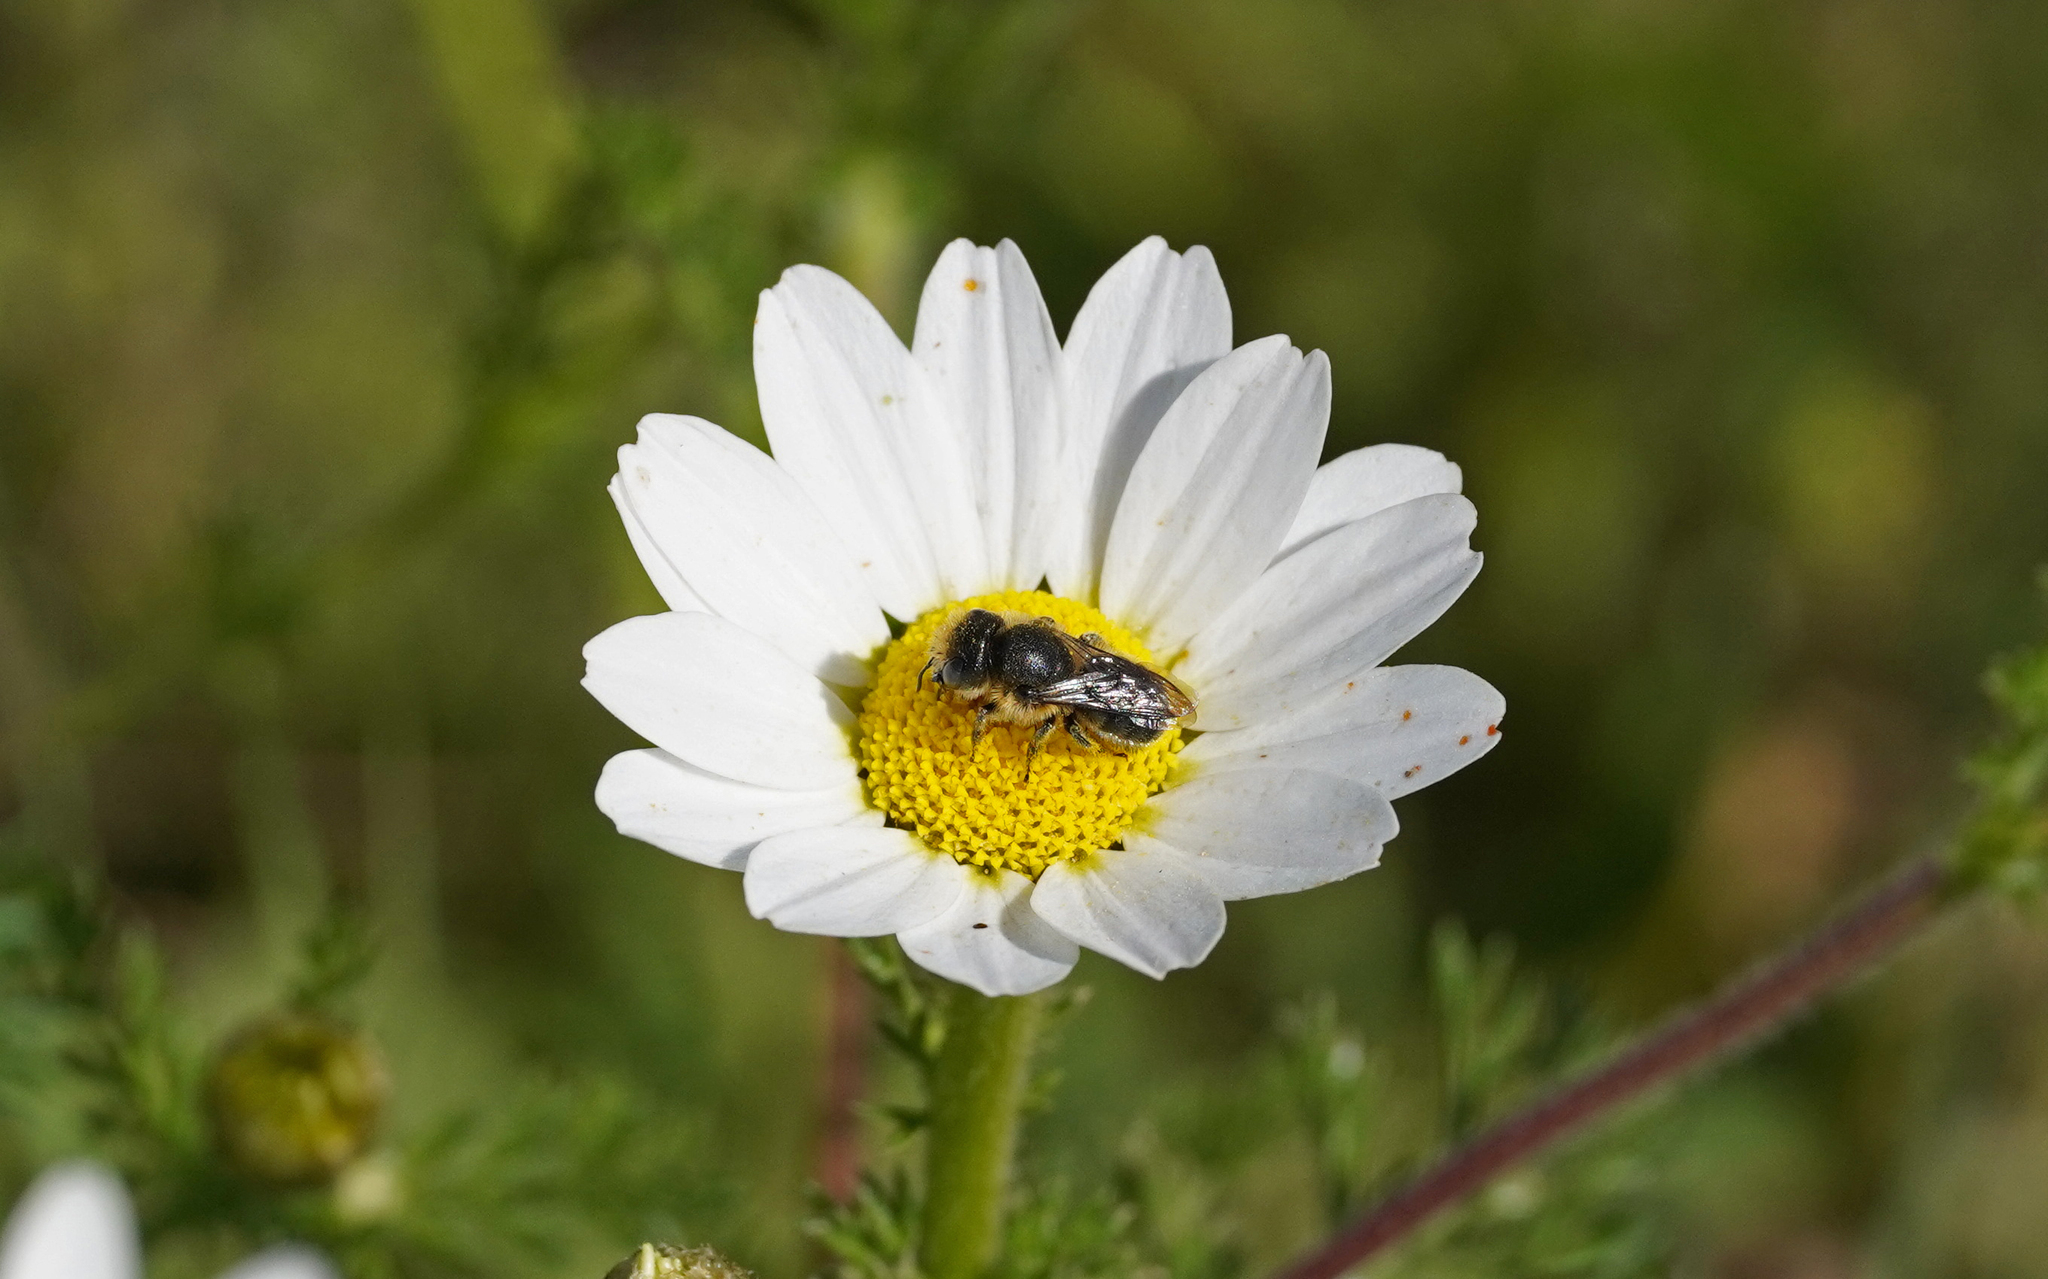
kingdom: Animalia
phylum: Arthropoda
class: Insecta
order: Hymenoptera
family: Megachilidae
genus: Osmia
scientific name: Osmia latreillei
